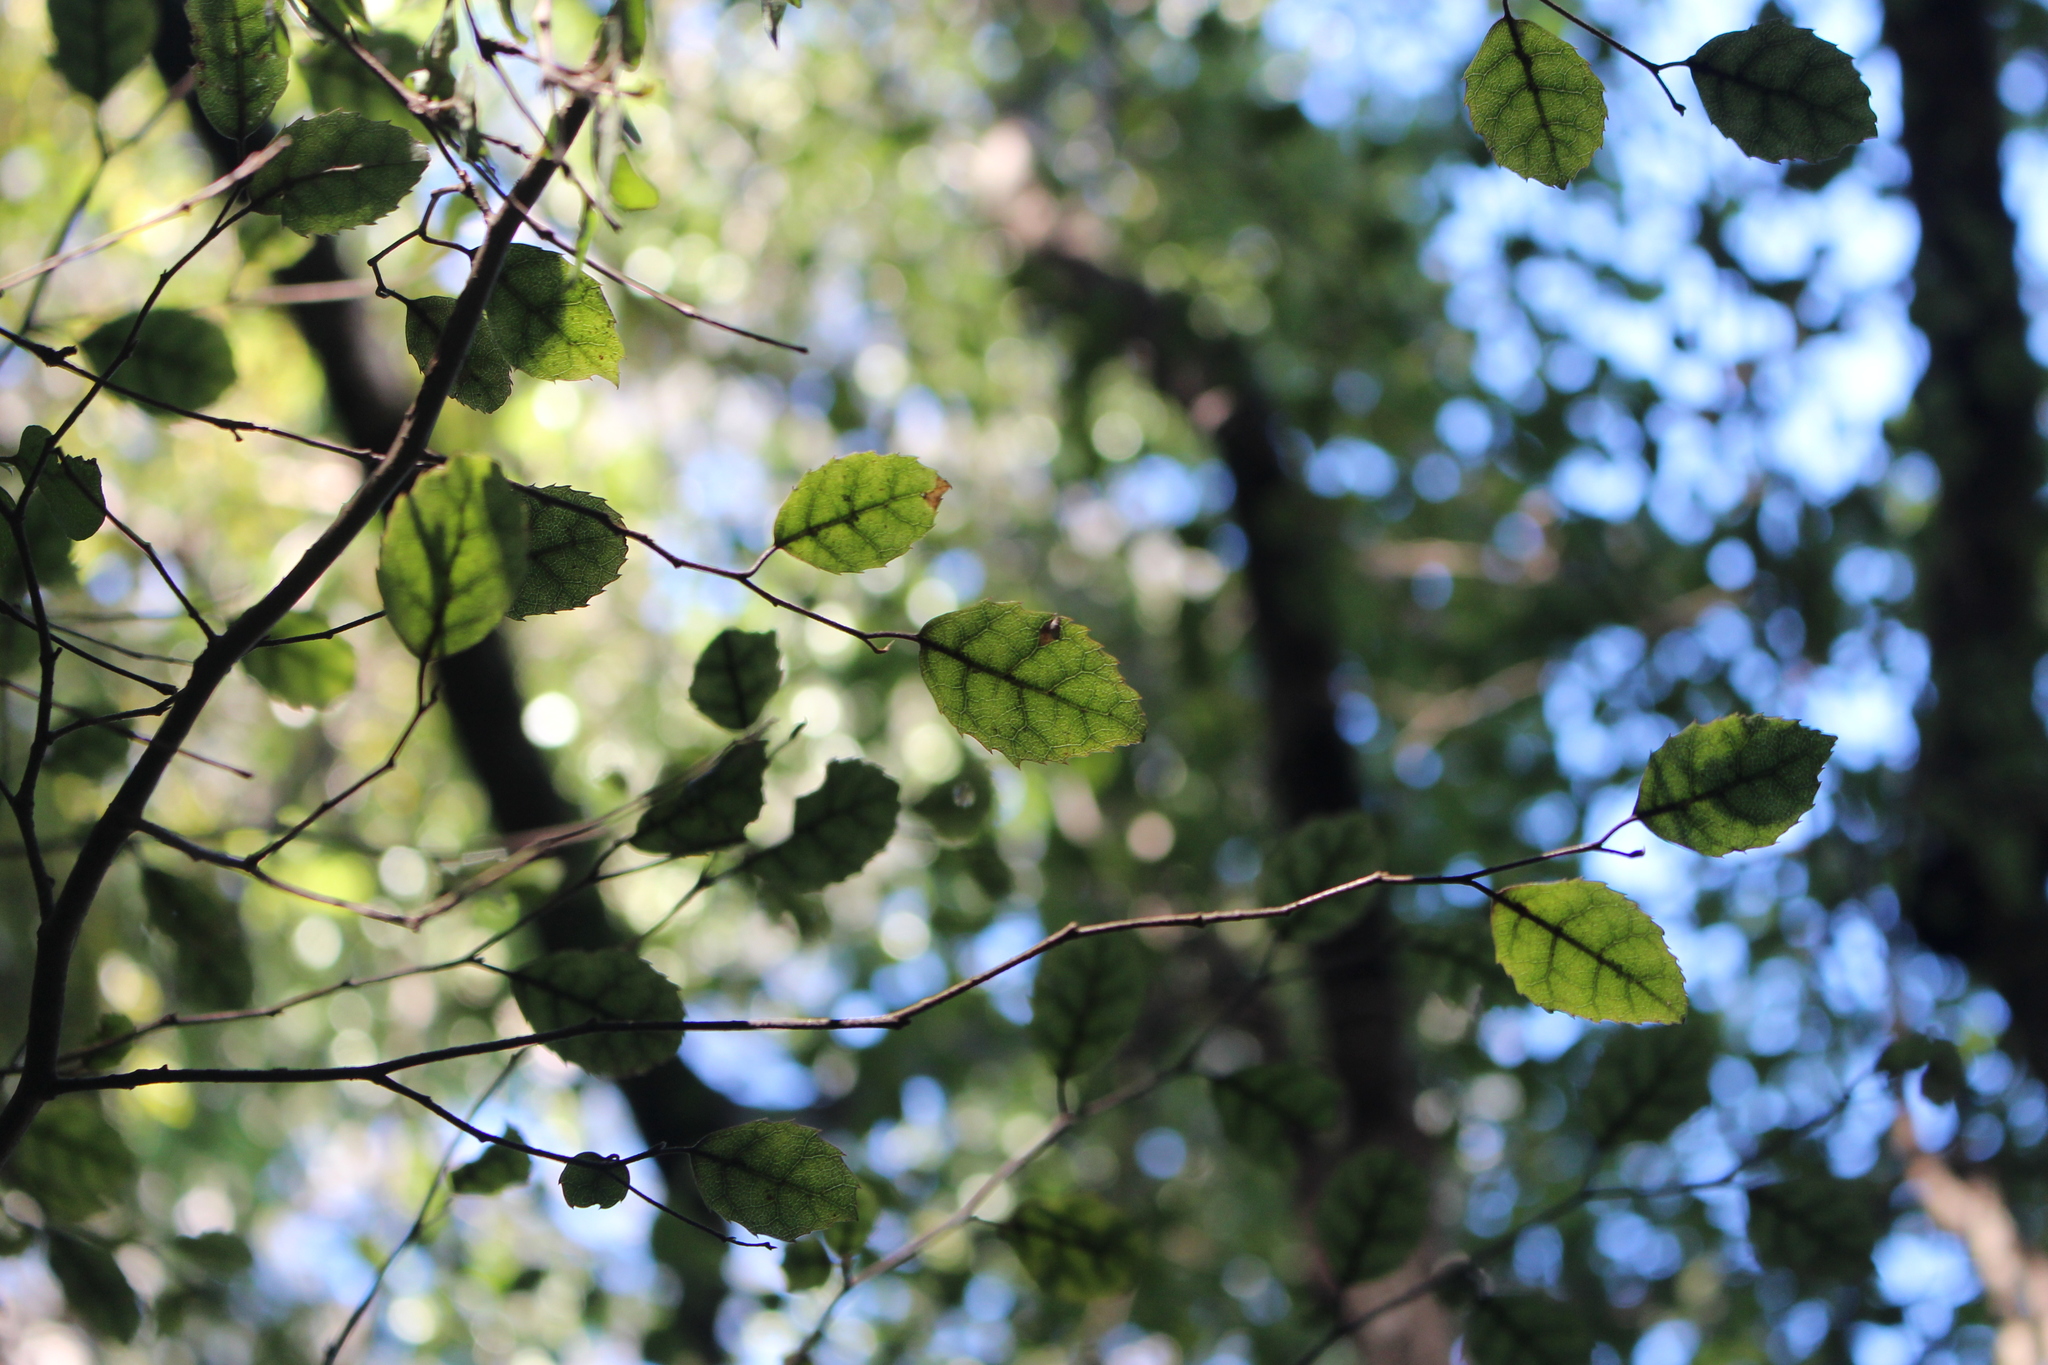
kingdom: Plantae
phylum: Tracheophyta
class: Magnoliopsida
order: Asterales
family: Rousseaceae
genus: Carpodetus
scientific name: Carpodetus serratus
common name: White mapau
